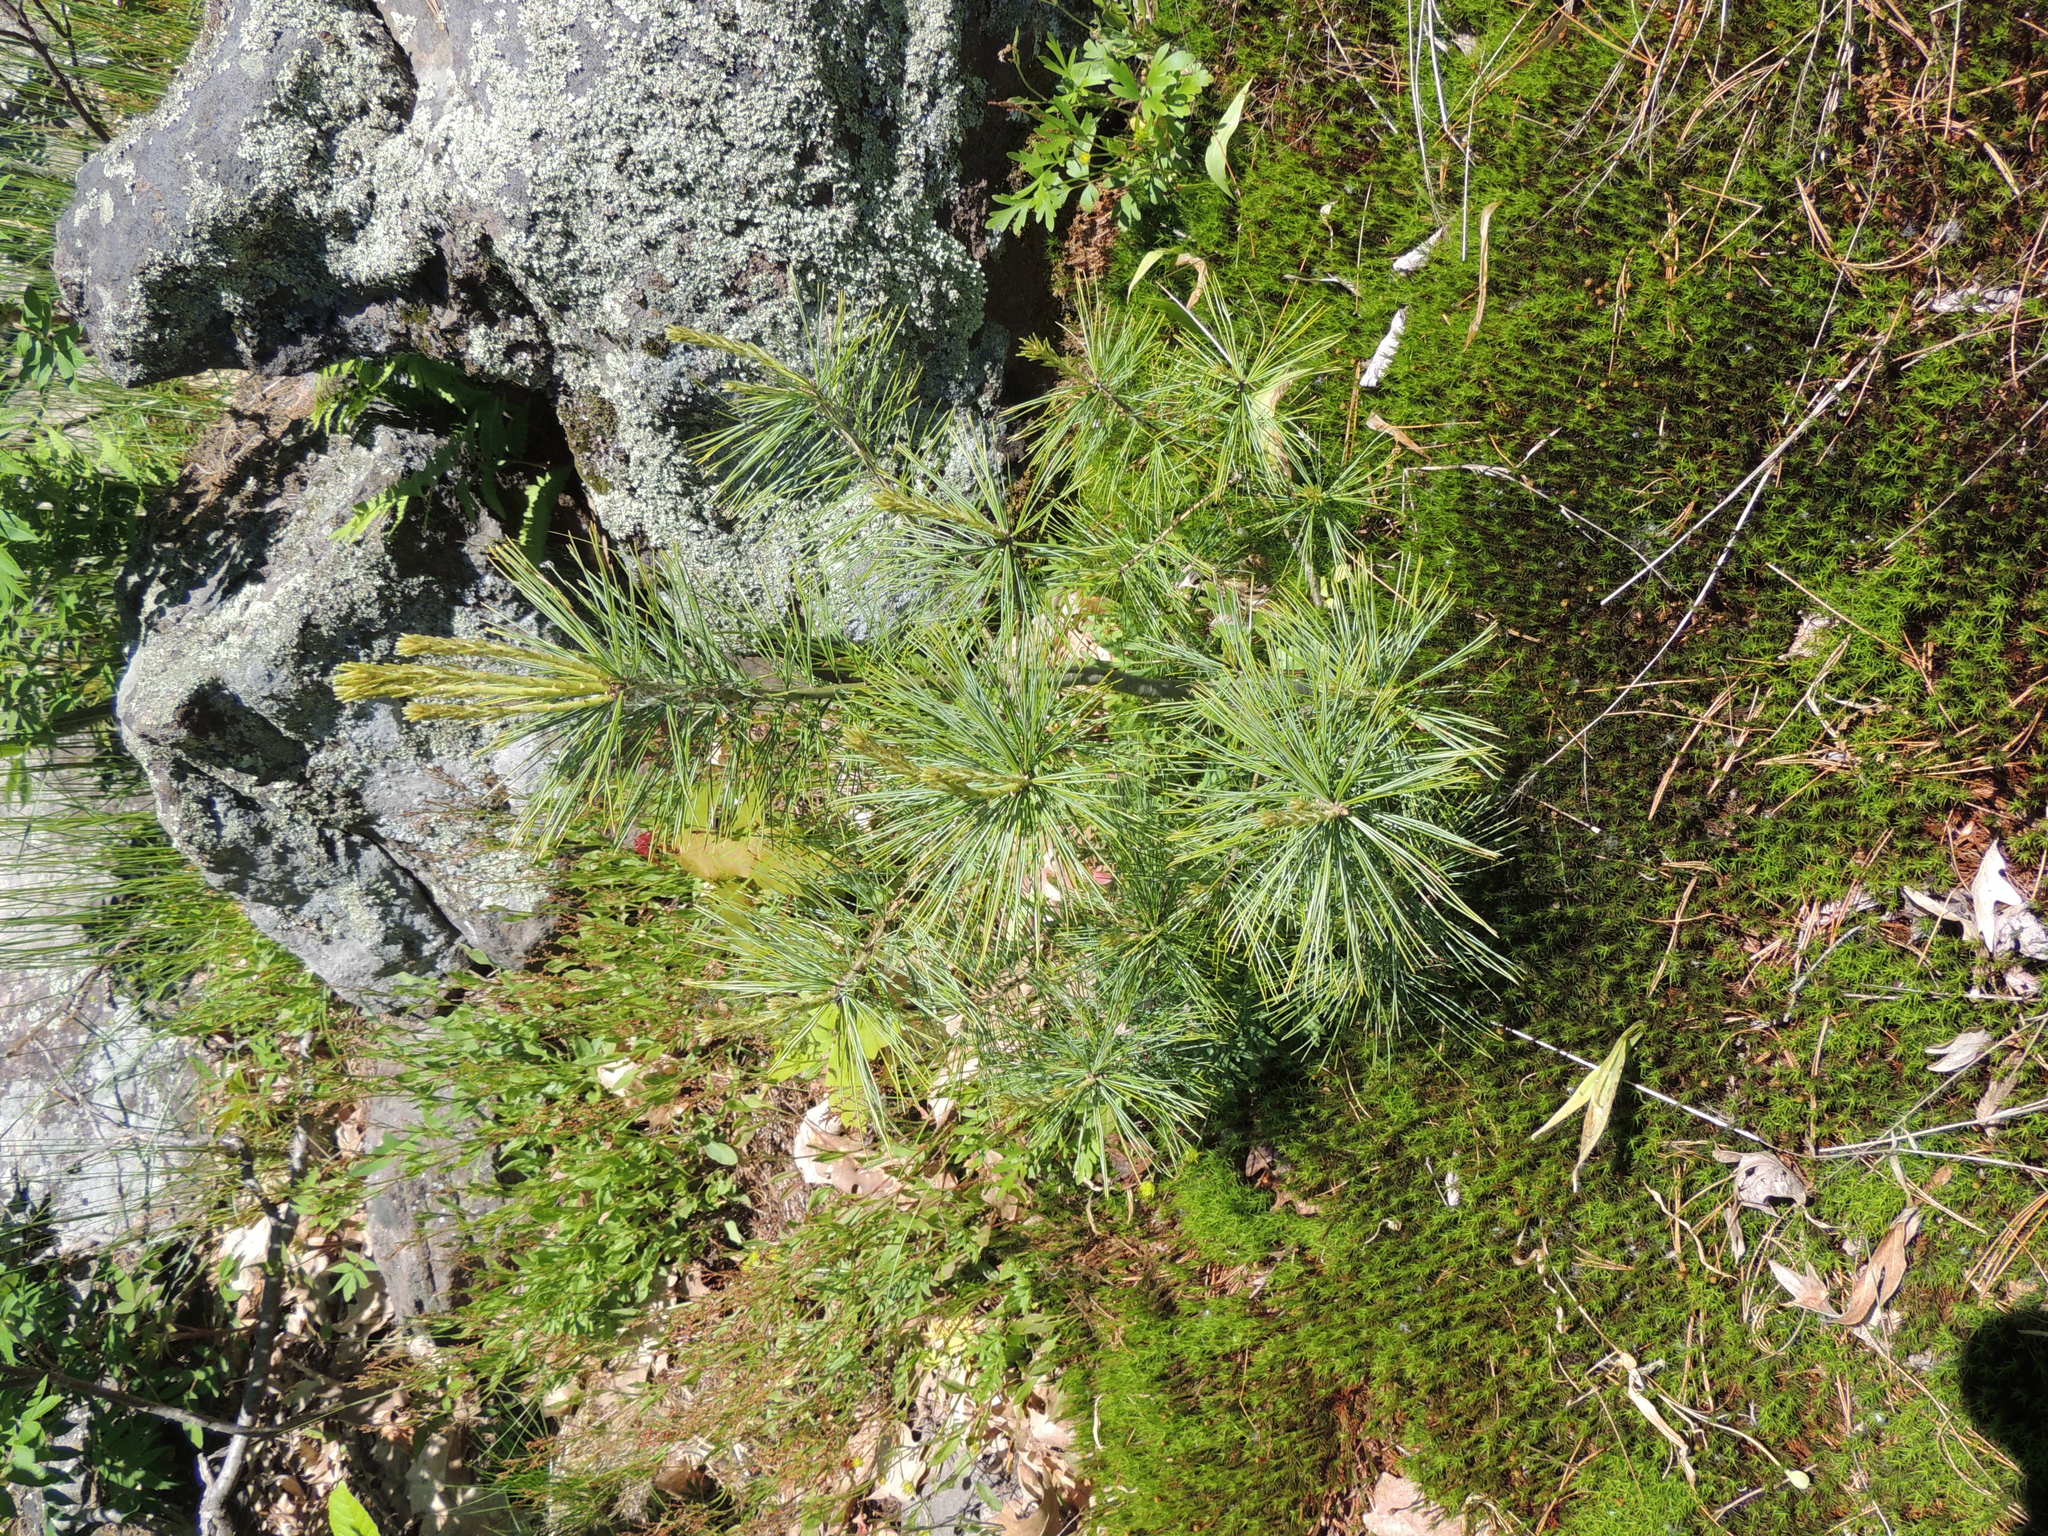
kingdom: Plantae
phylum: Tracheophyta
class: Pinopsida
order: Pinales
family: Pinaceae
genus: Pinus
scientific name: Pinus strobus
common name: Weymouth pine
